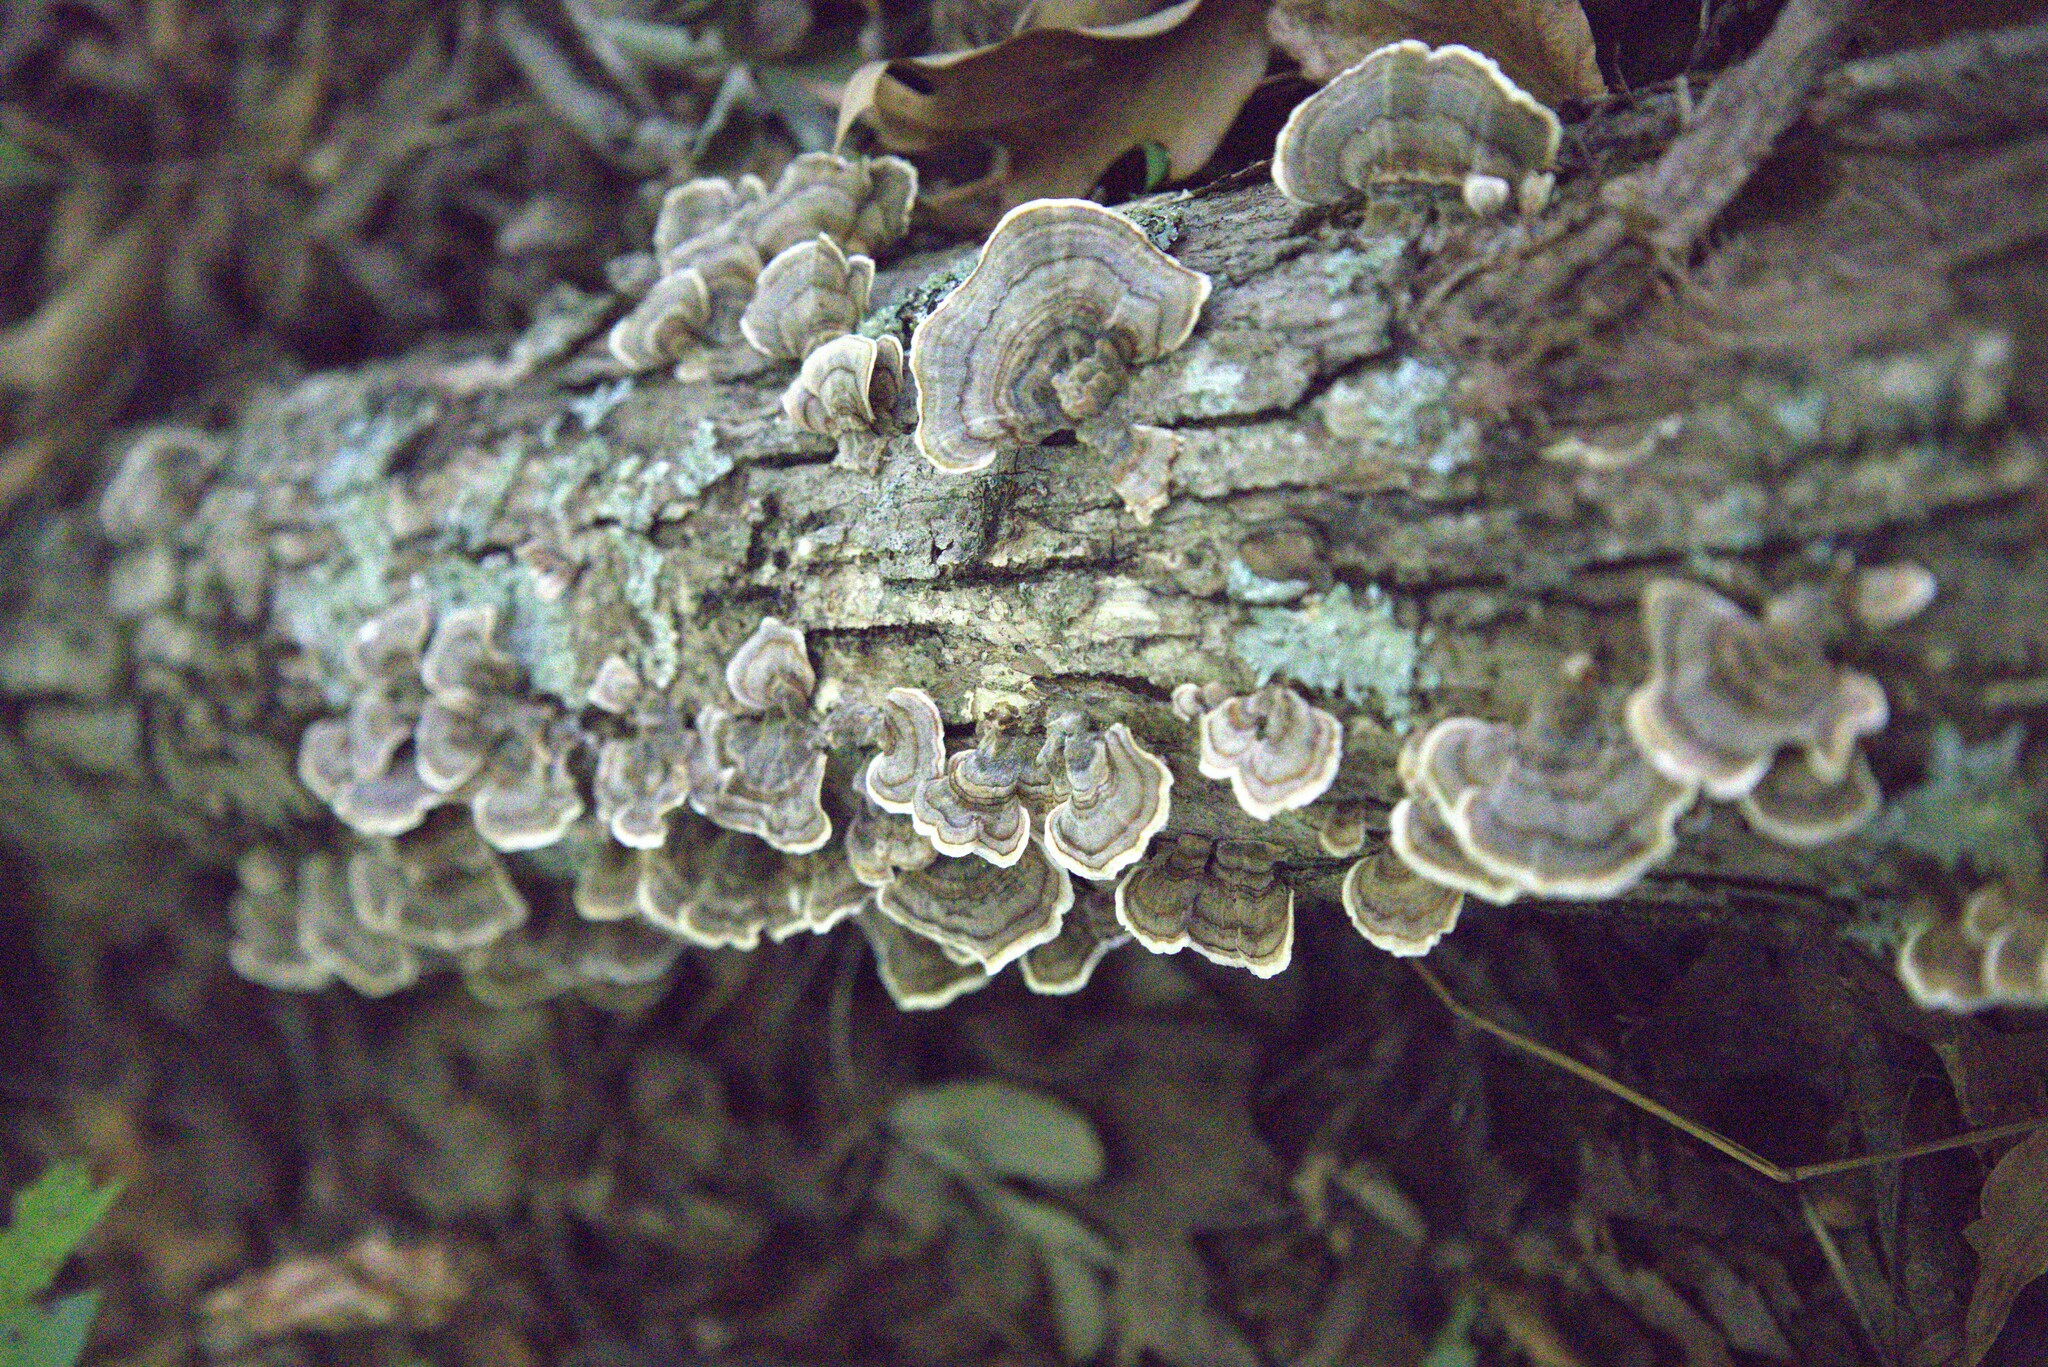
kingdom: Fungi
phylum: Basidiomycota
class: Agaricomycetes
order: Polyporales
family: Polyporaceae
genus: Trametes
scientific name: Trametes versicolor
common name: Turkeytail
